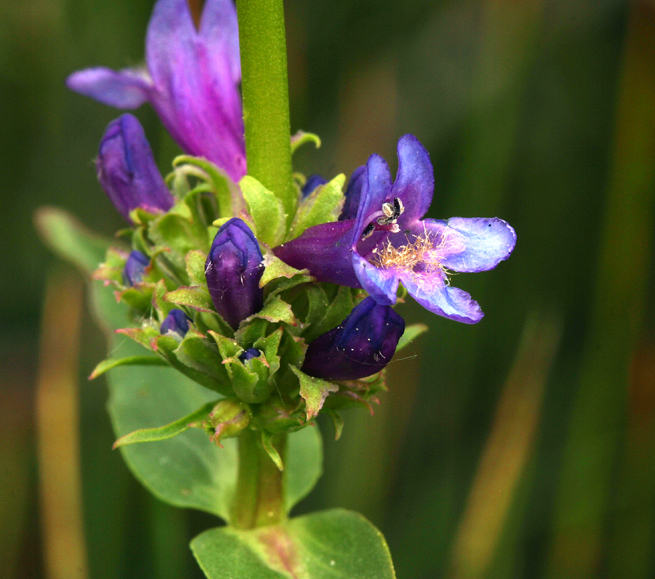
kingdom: Plantae
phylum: Tracheophyta
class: Magnoliopsida
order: Lamiales
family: Plantaginaceae
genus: Penstemon
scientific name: Penstemon rydbergii
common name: Rydberg's beardtongue
